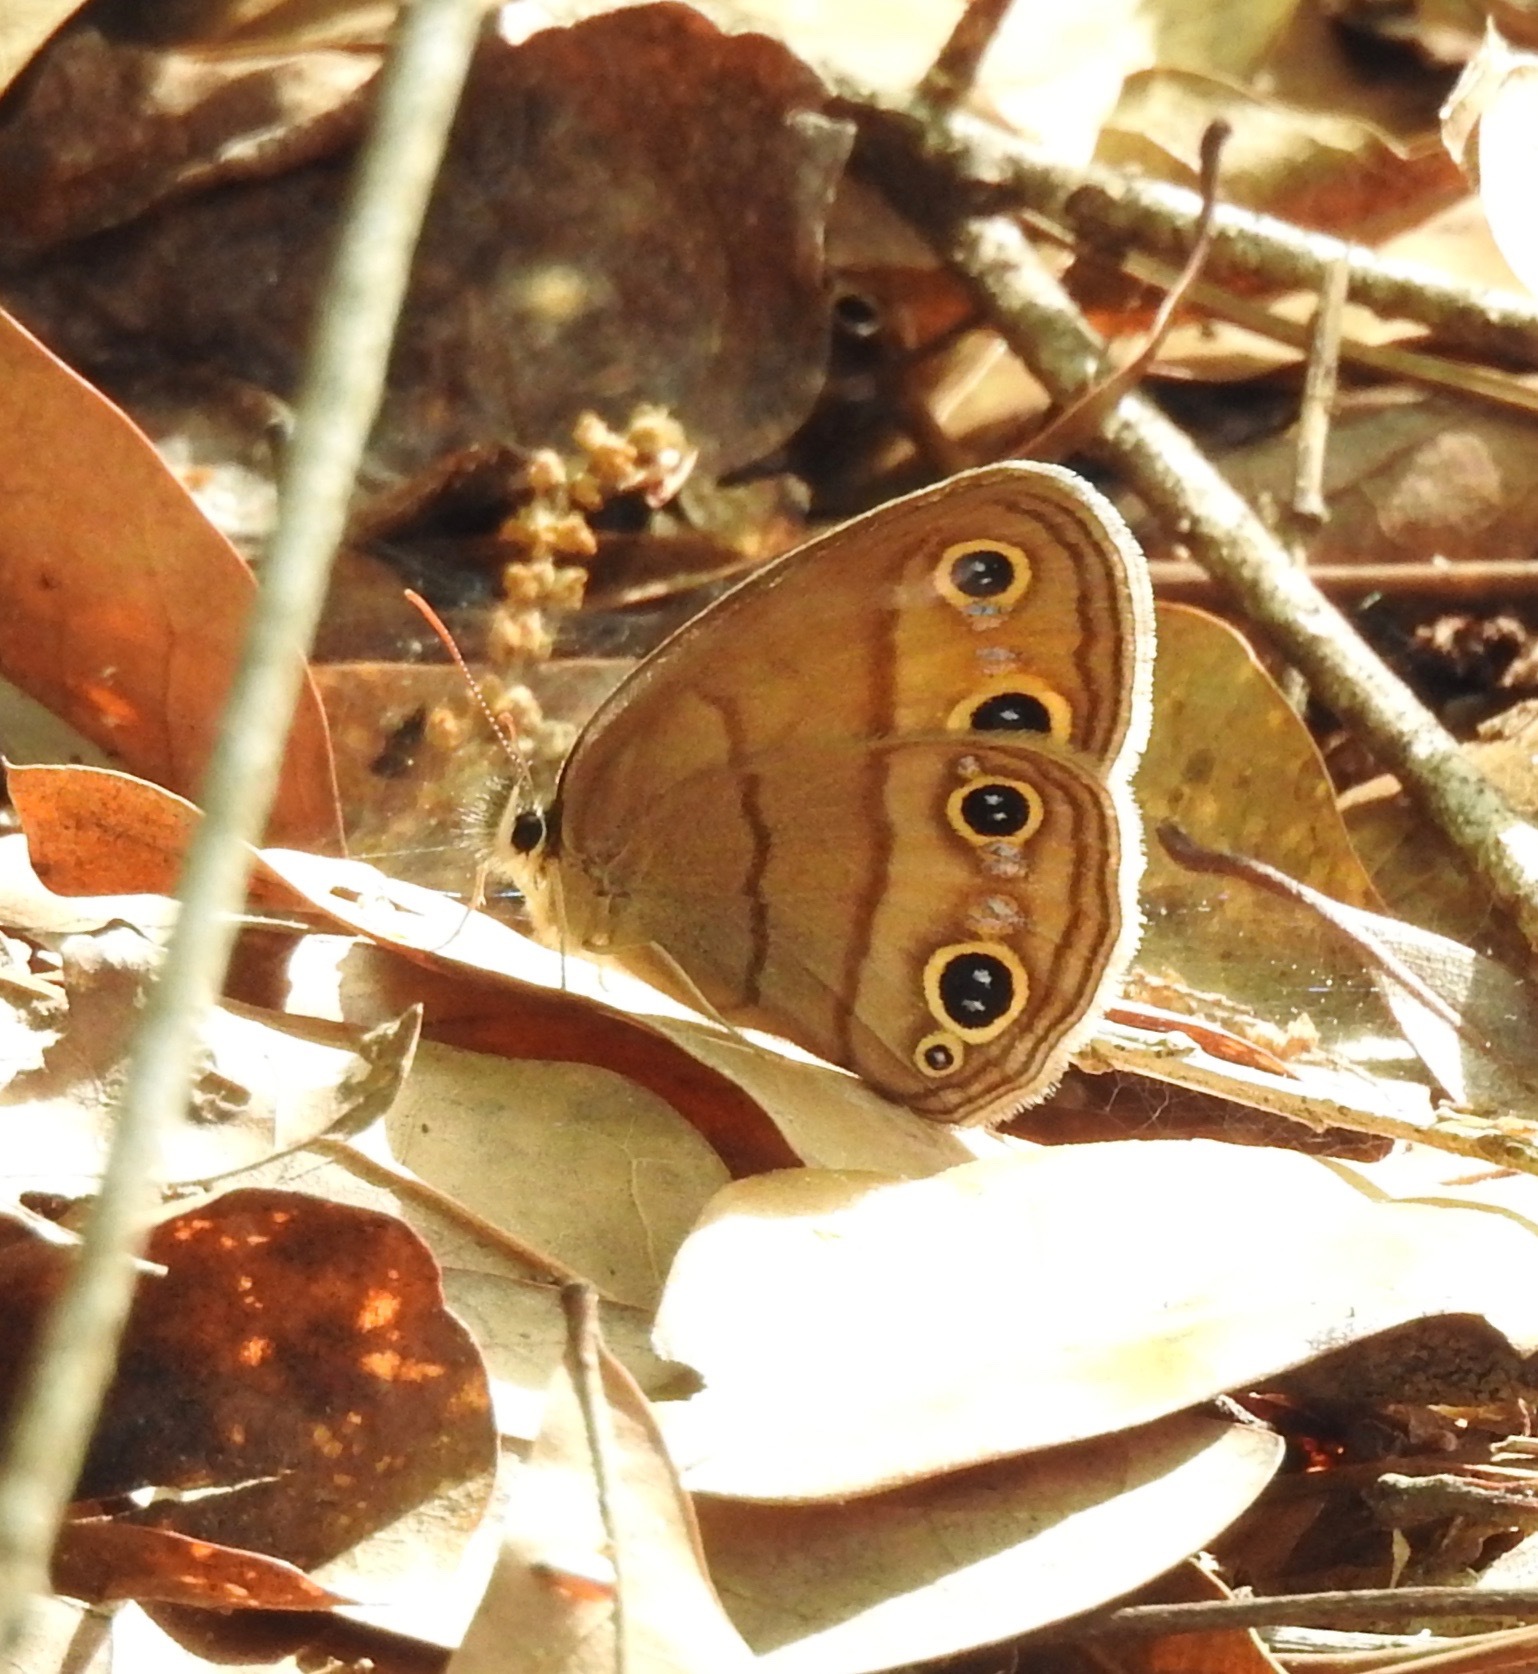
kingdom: Animalia
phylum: Arthropoda
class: Insecta
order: Lepidoptera
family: Nymphalidae
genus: Euptychia
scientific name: Euptychia cymela
